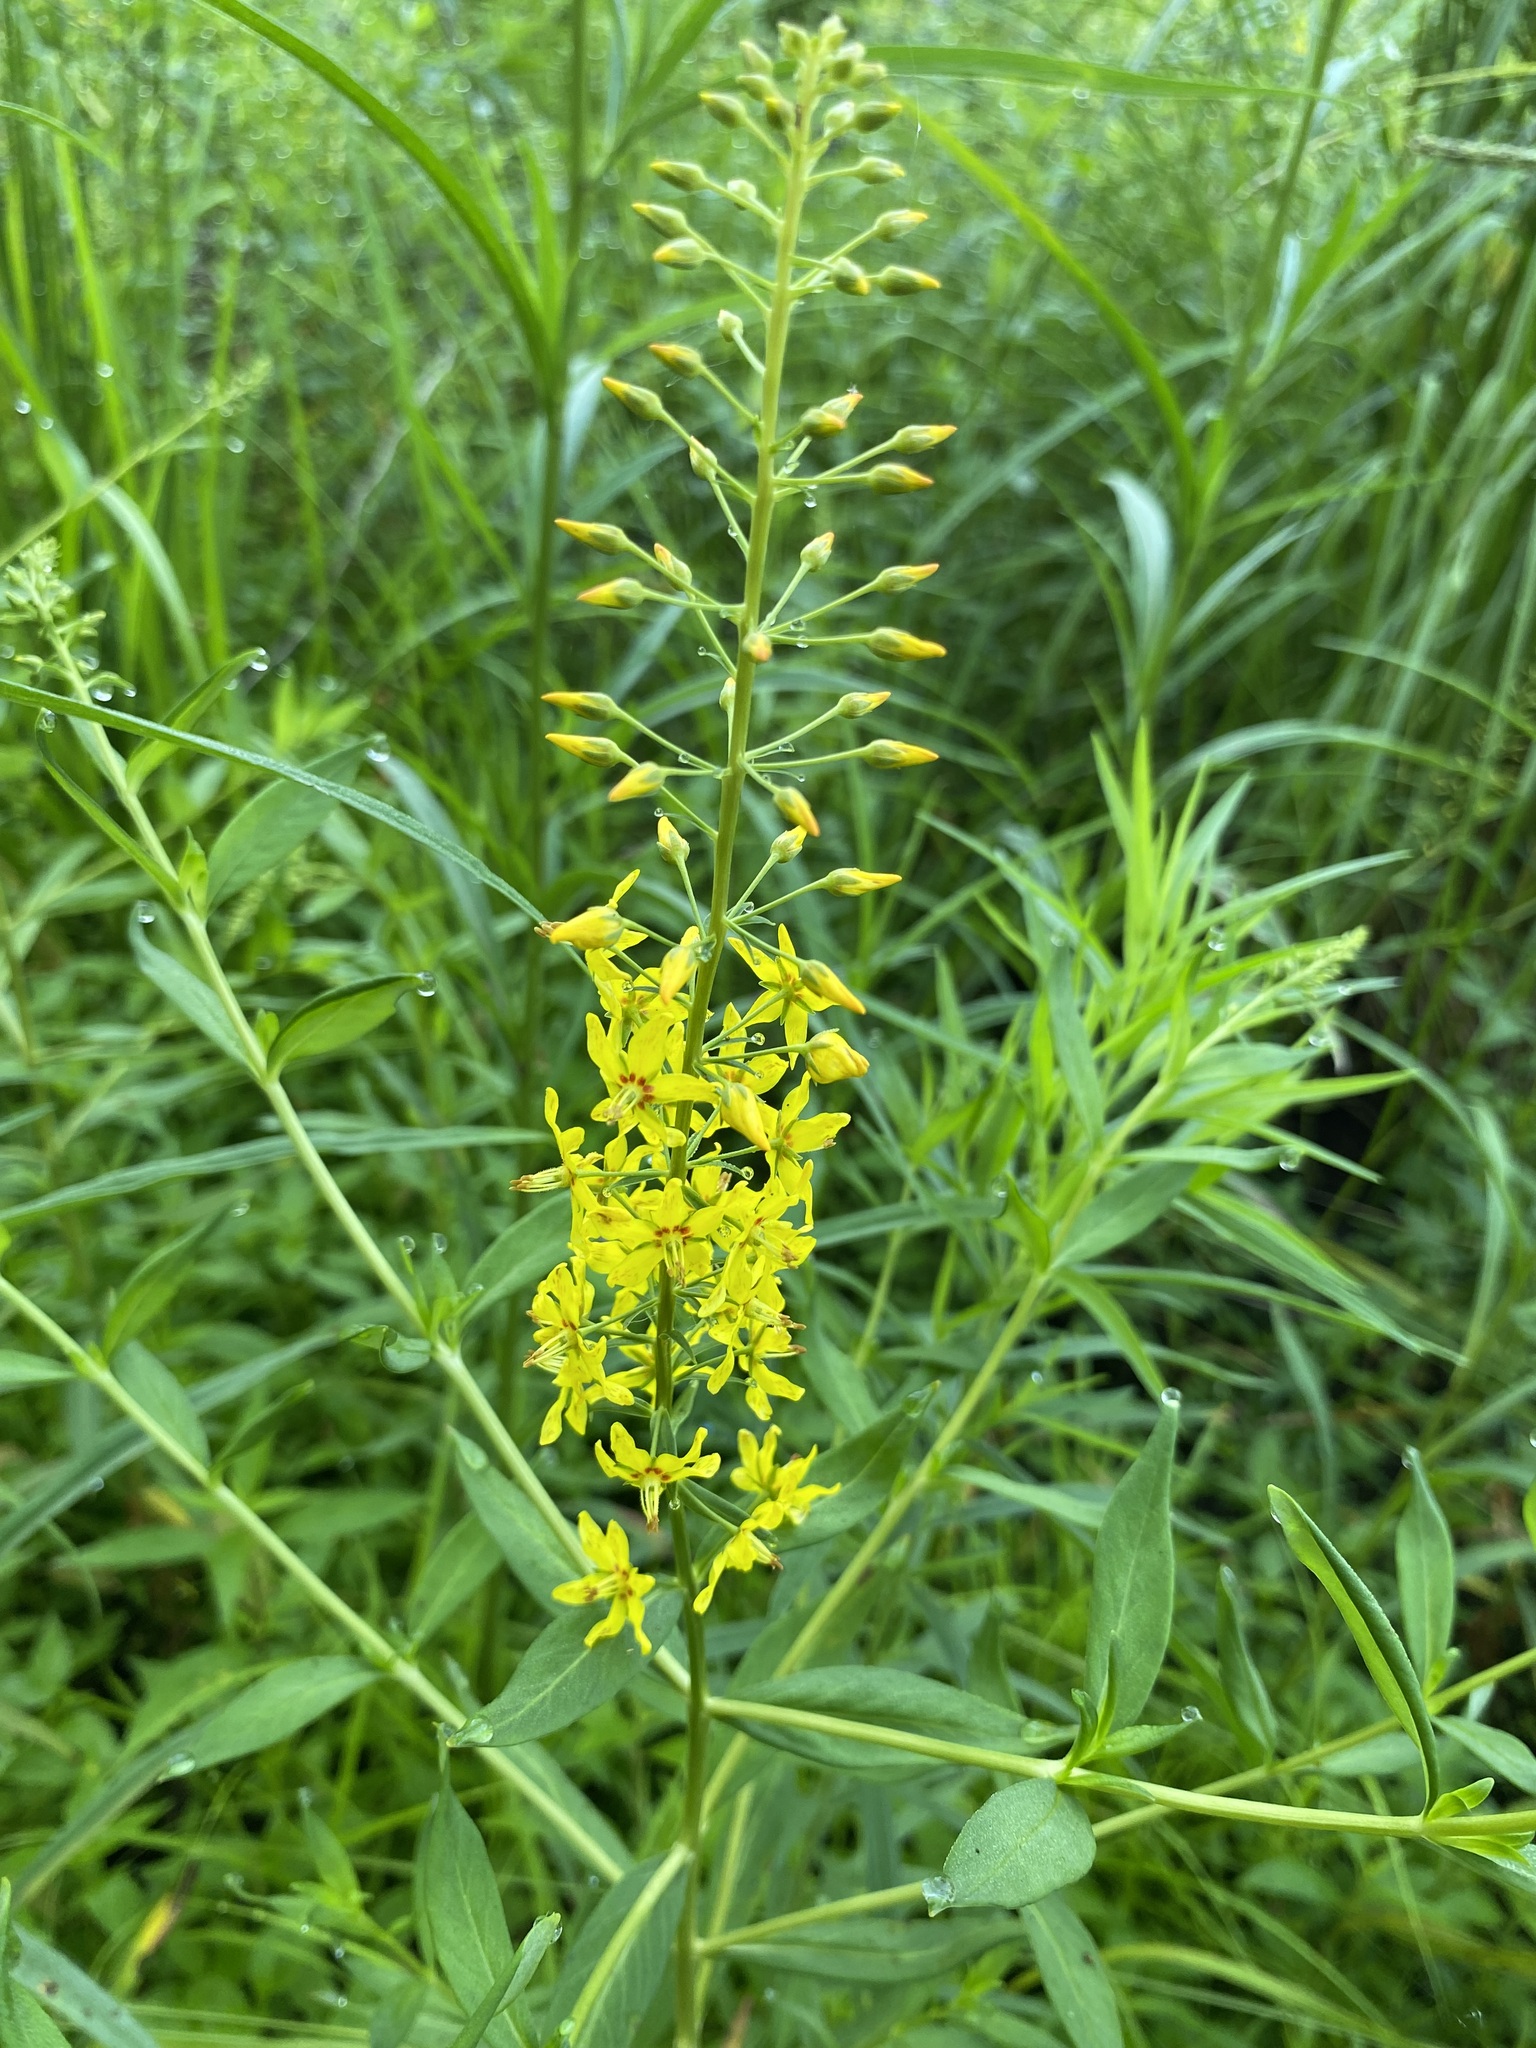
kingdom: Plantae
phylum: Tracheophyta
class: Magnoliopsida
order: Ericales
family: Primulaceae
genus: Lysimachia
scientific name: Lysimachia terrestris
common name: Lake loosestrife
